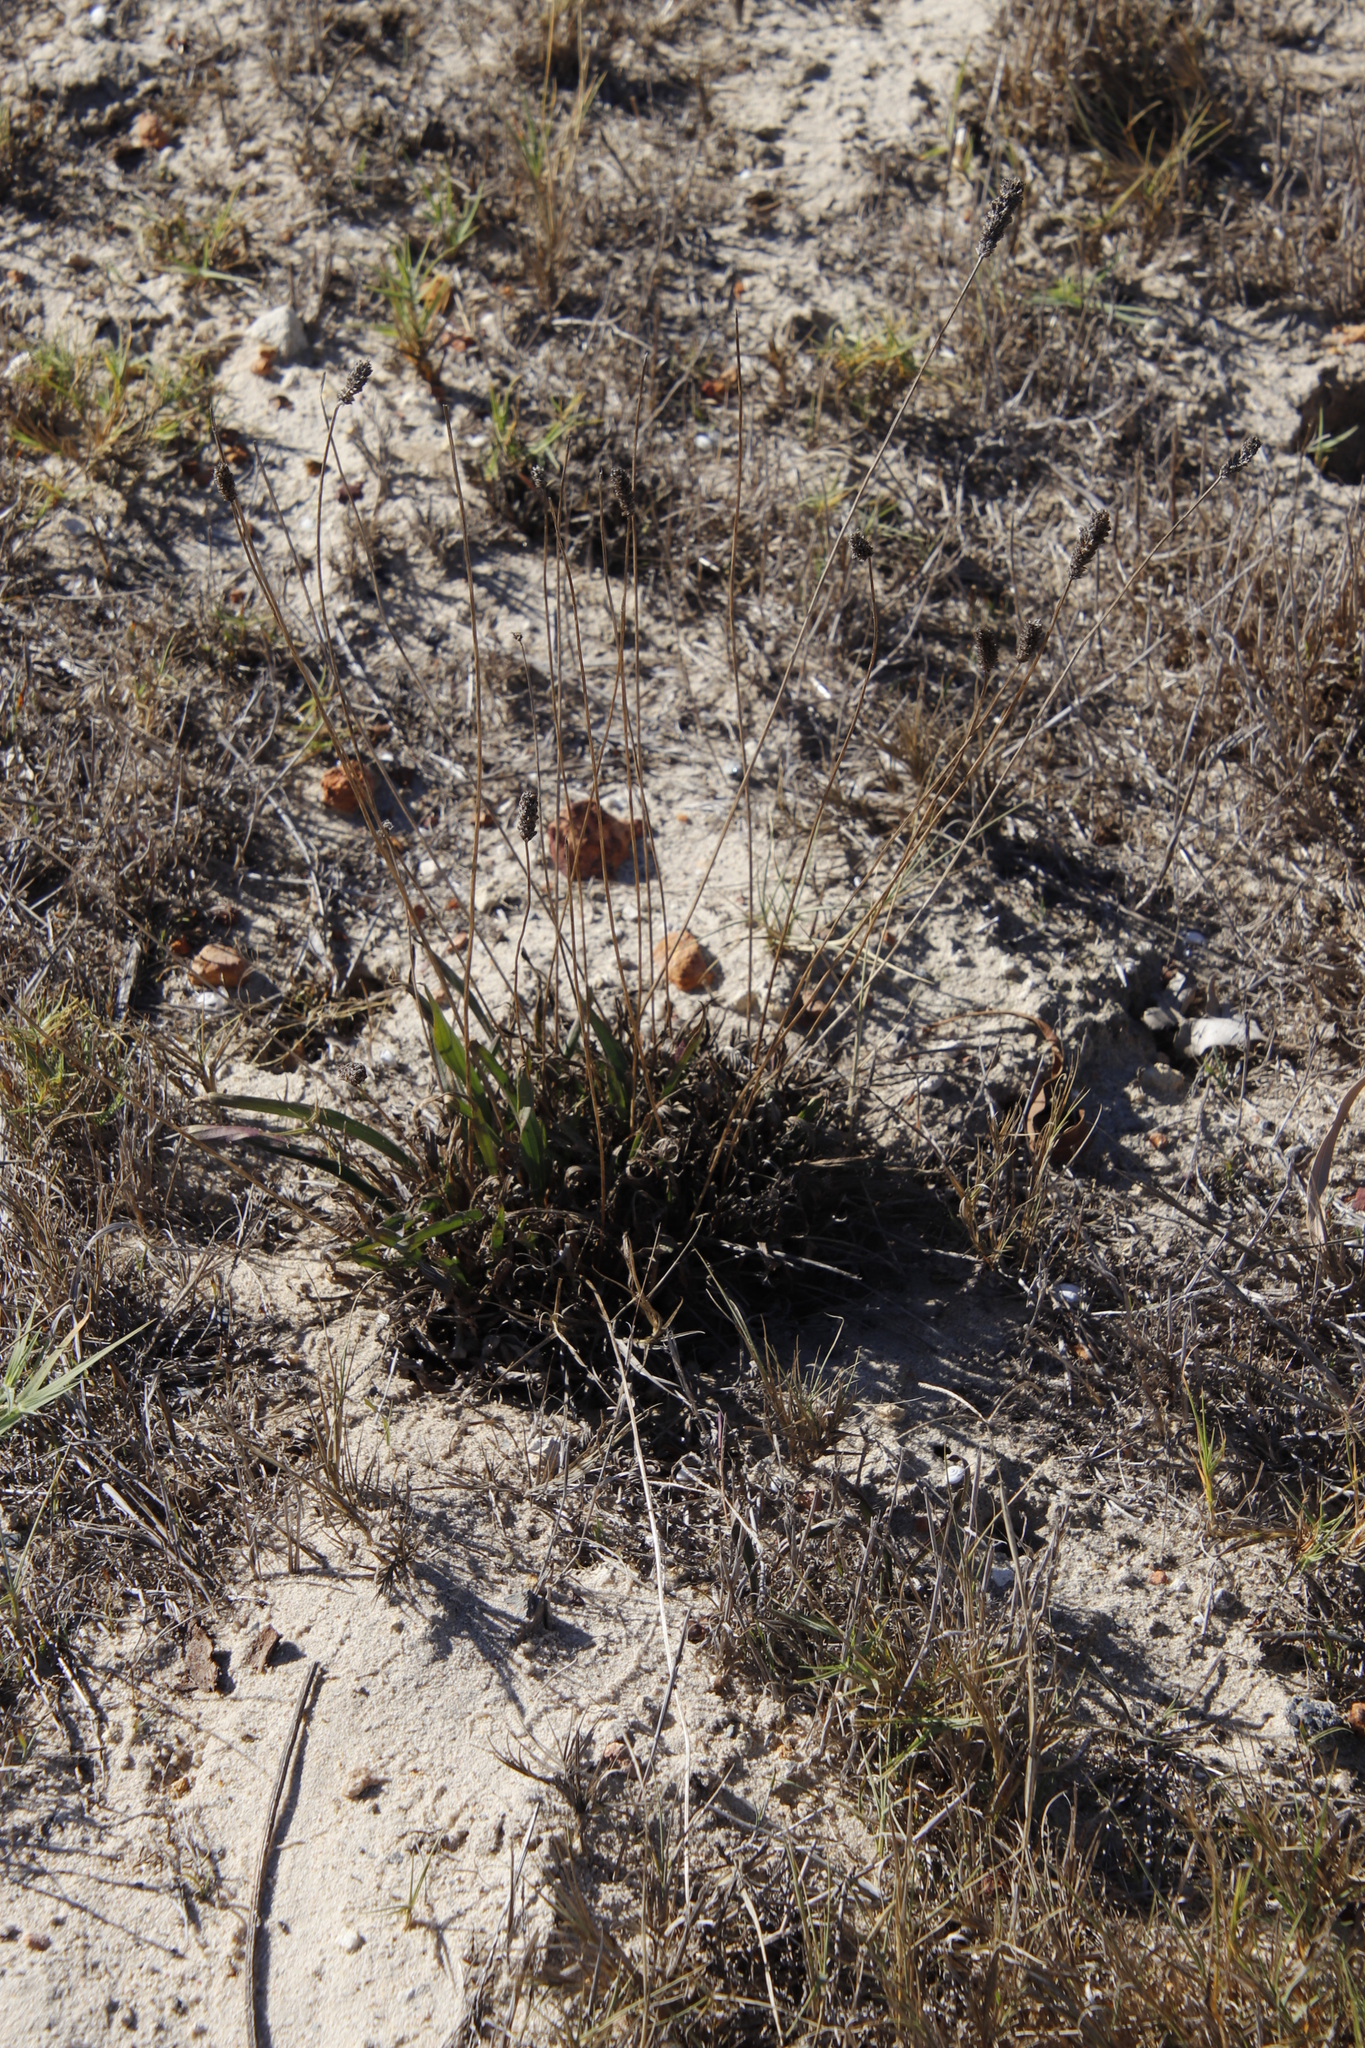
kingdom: Plantae
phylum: Tracheophyta
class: Magnoliopsida
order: Lamiales
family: Plantaginaceae
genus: Plantago
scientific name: Plantago lanceolata
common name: Ribwort plantain
